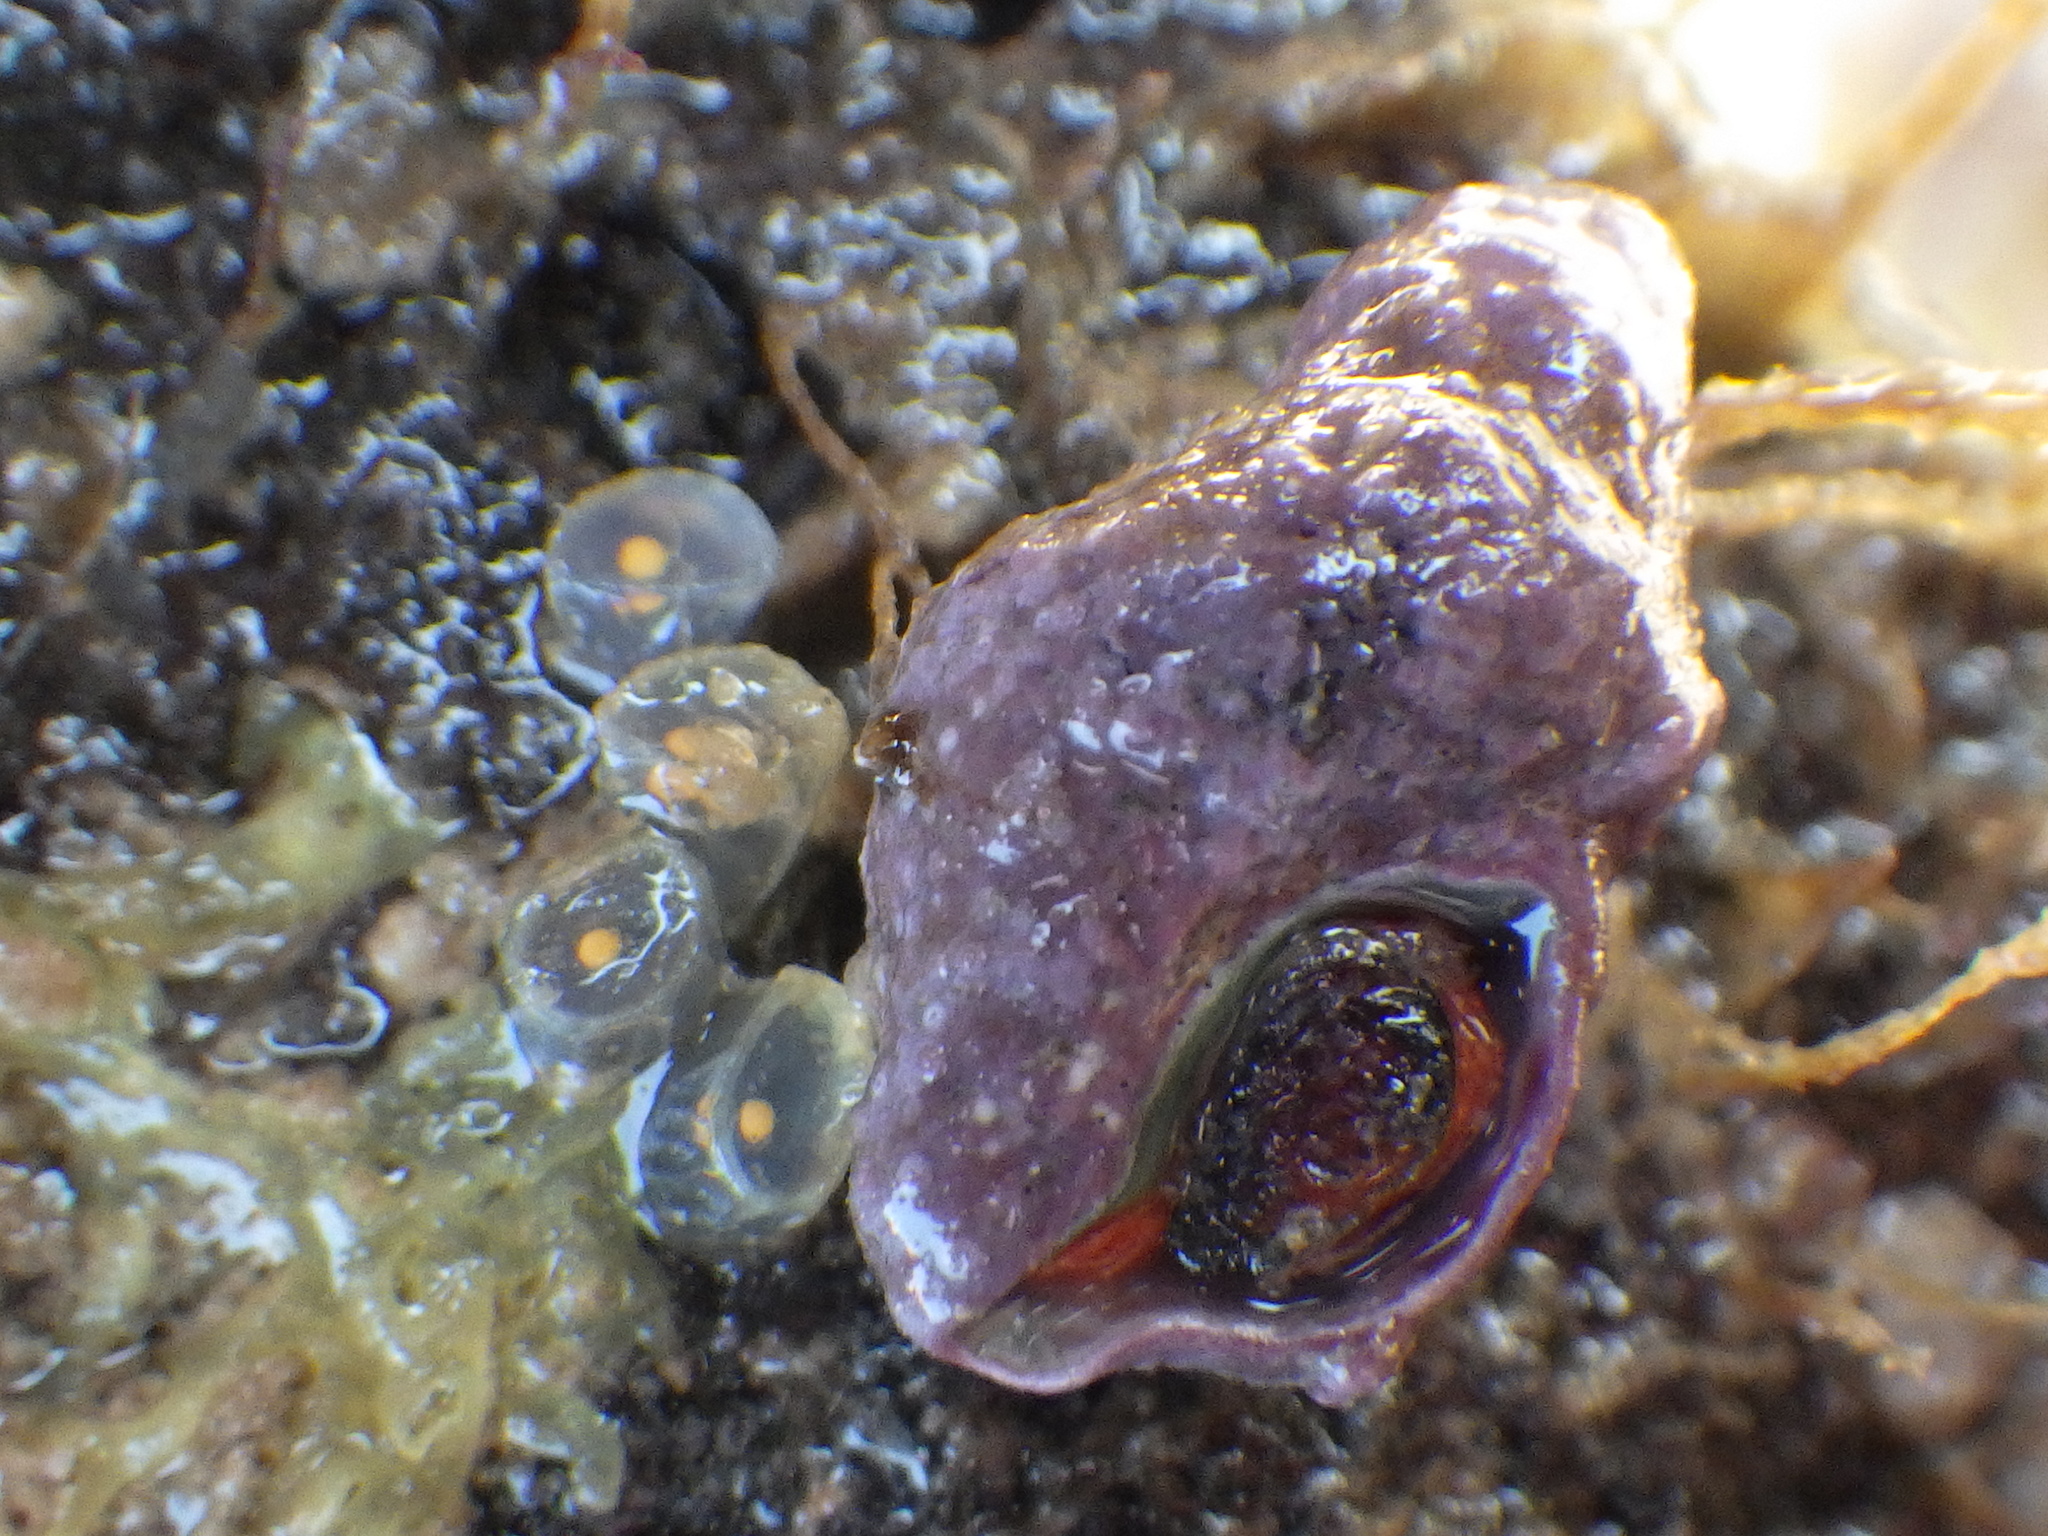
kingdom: Animalia
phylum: Mollusca
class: Gastropoda
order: Neogastropoda
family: Fasciolariidae
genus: Taron
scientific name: Taron dubius
